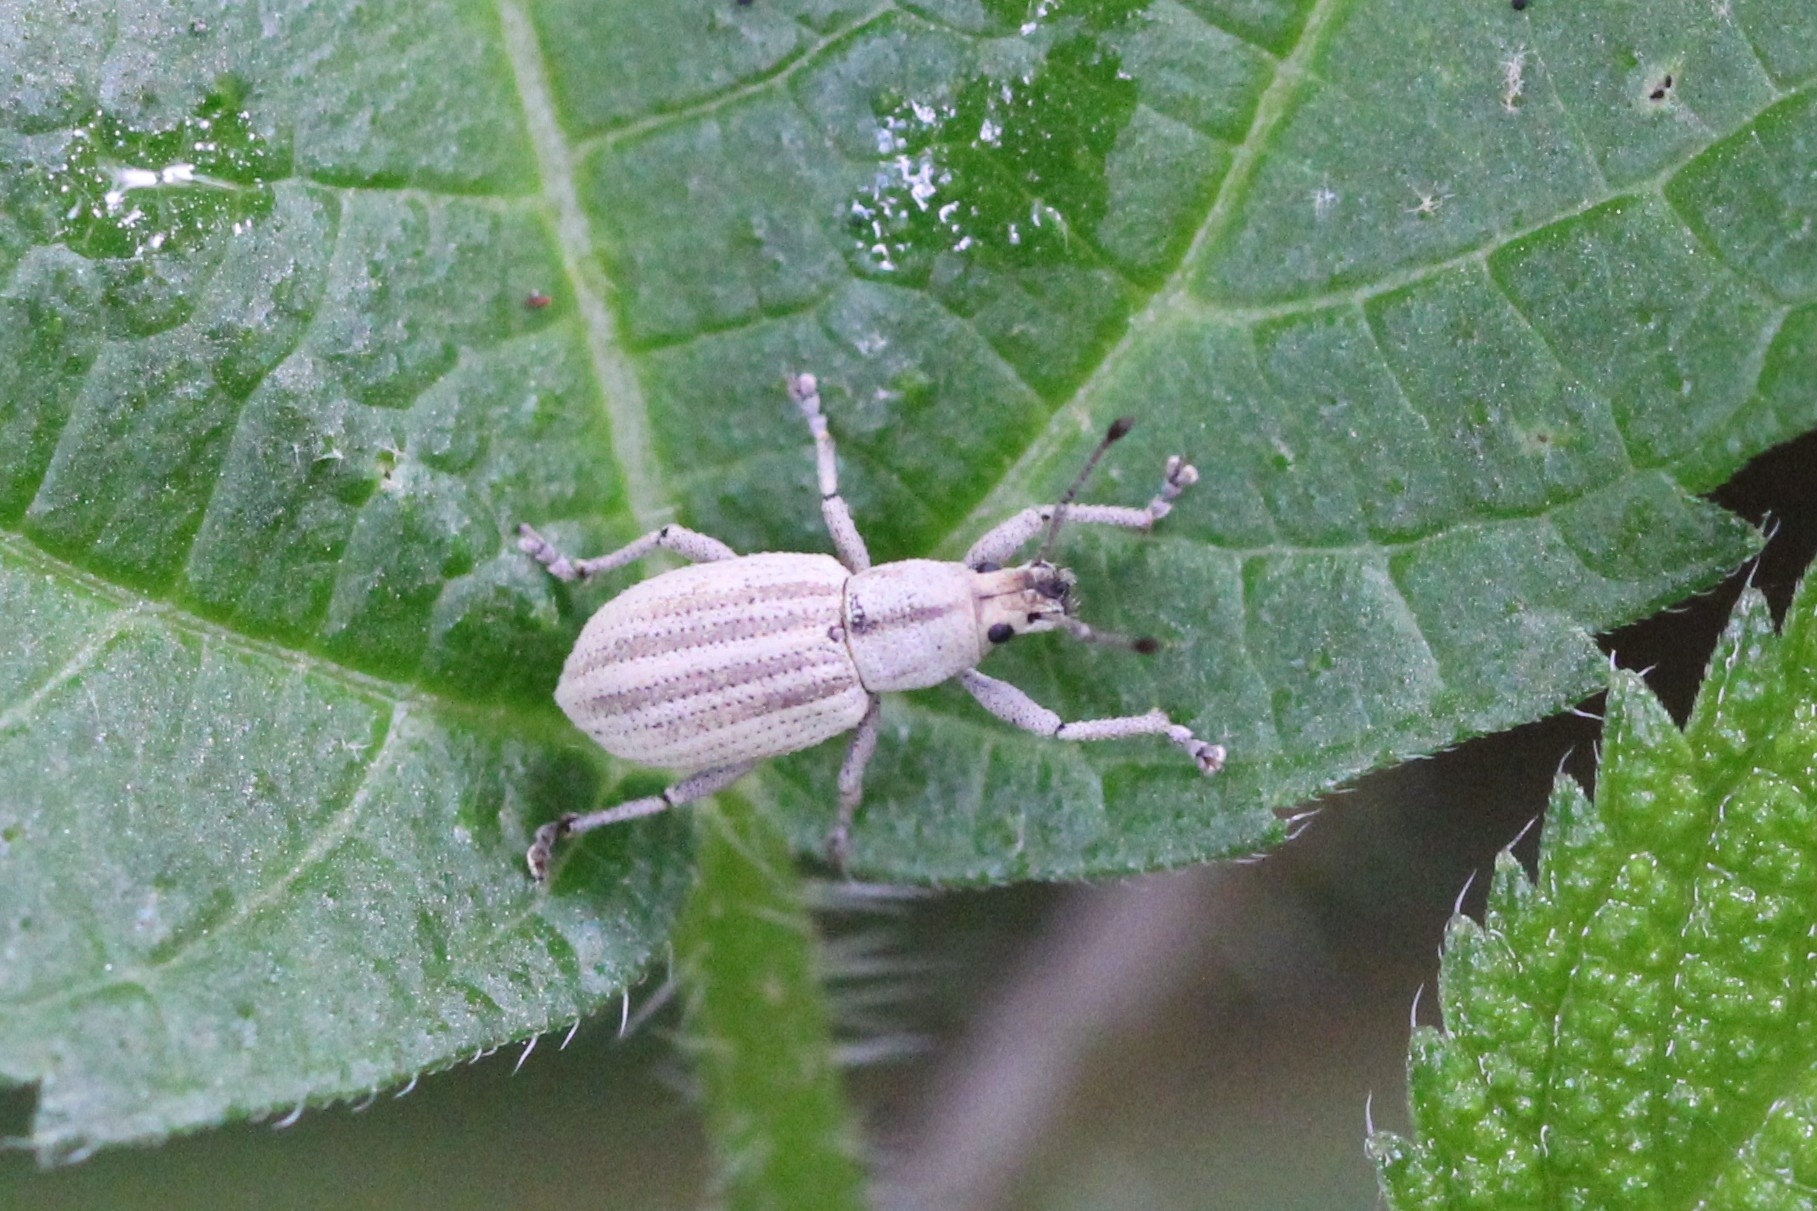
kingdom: Animalia
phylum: Arthropoda
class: Insecta
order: Coleoptera
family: Curculionidae
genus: Aphrastus
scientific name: Aphrastus taeniatus
